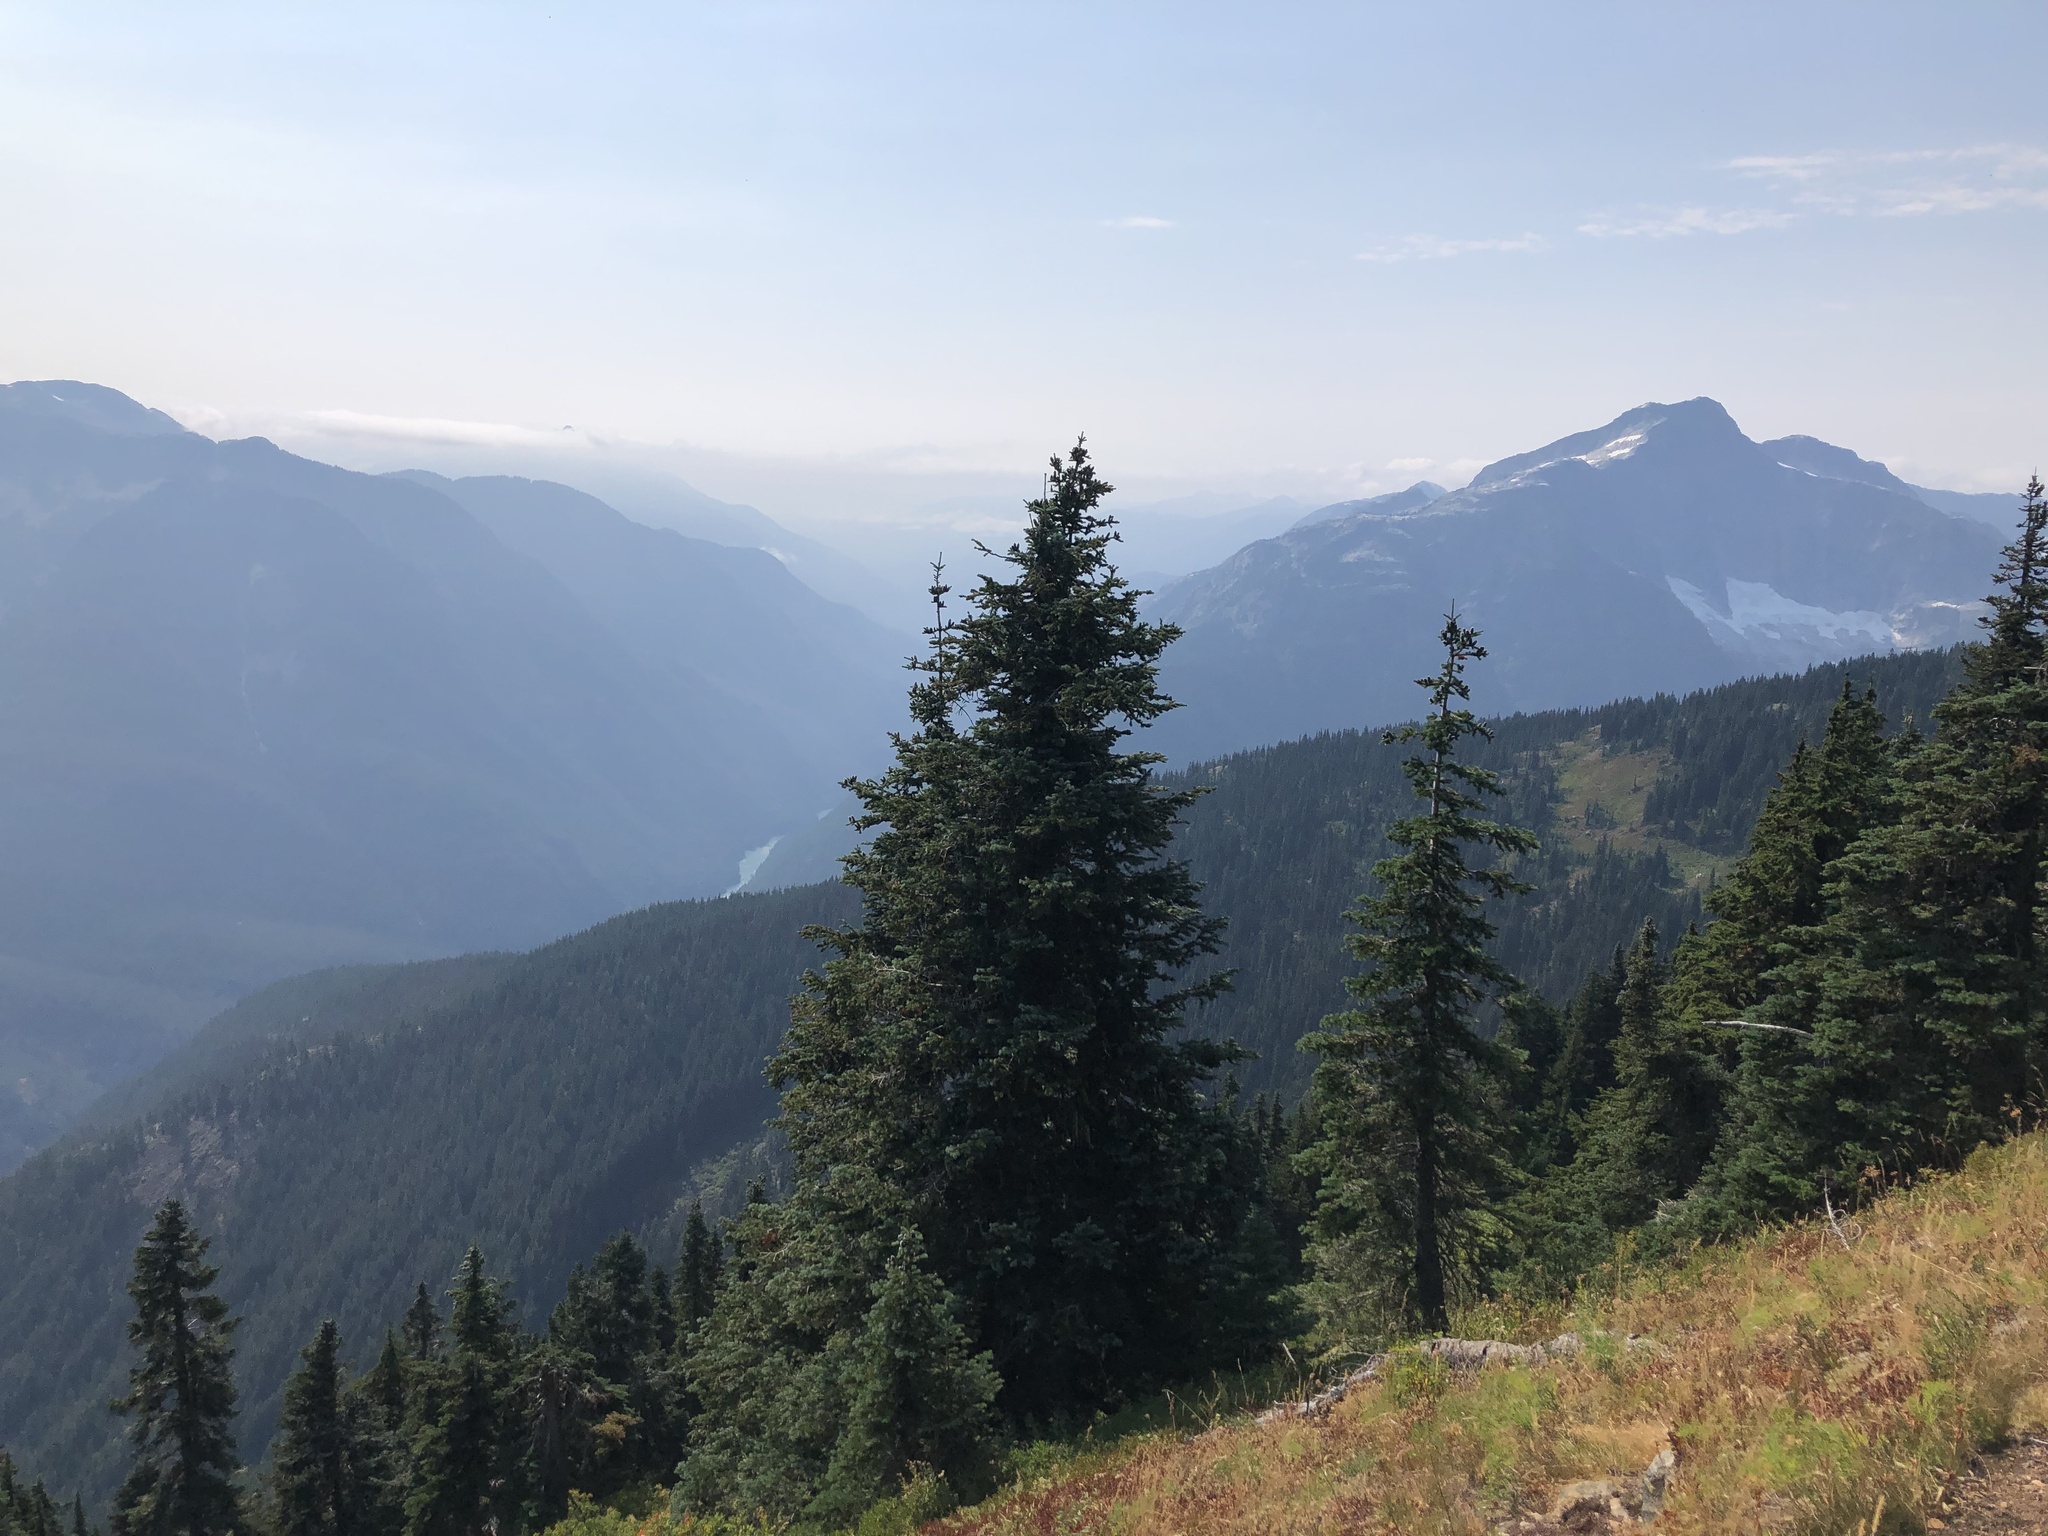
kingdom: Plantae
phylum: Tracheophyta
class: Pinopsida
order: Pinales
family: Pinaceae
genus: Abies
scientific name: Abies amabilis
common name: Pacific silver fir
